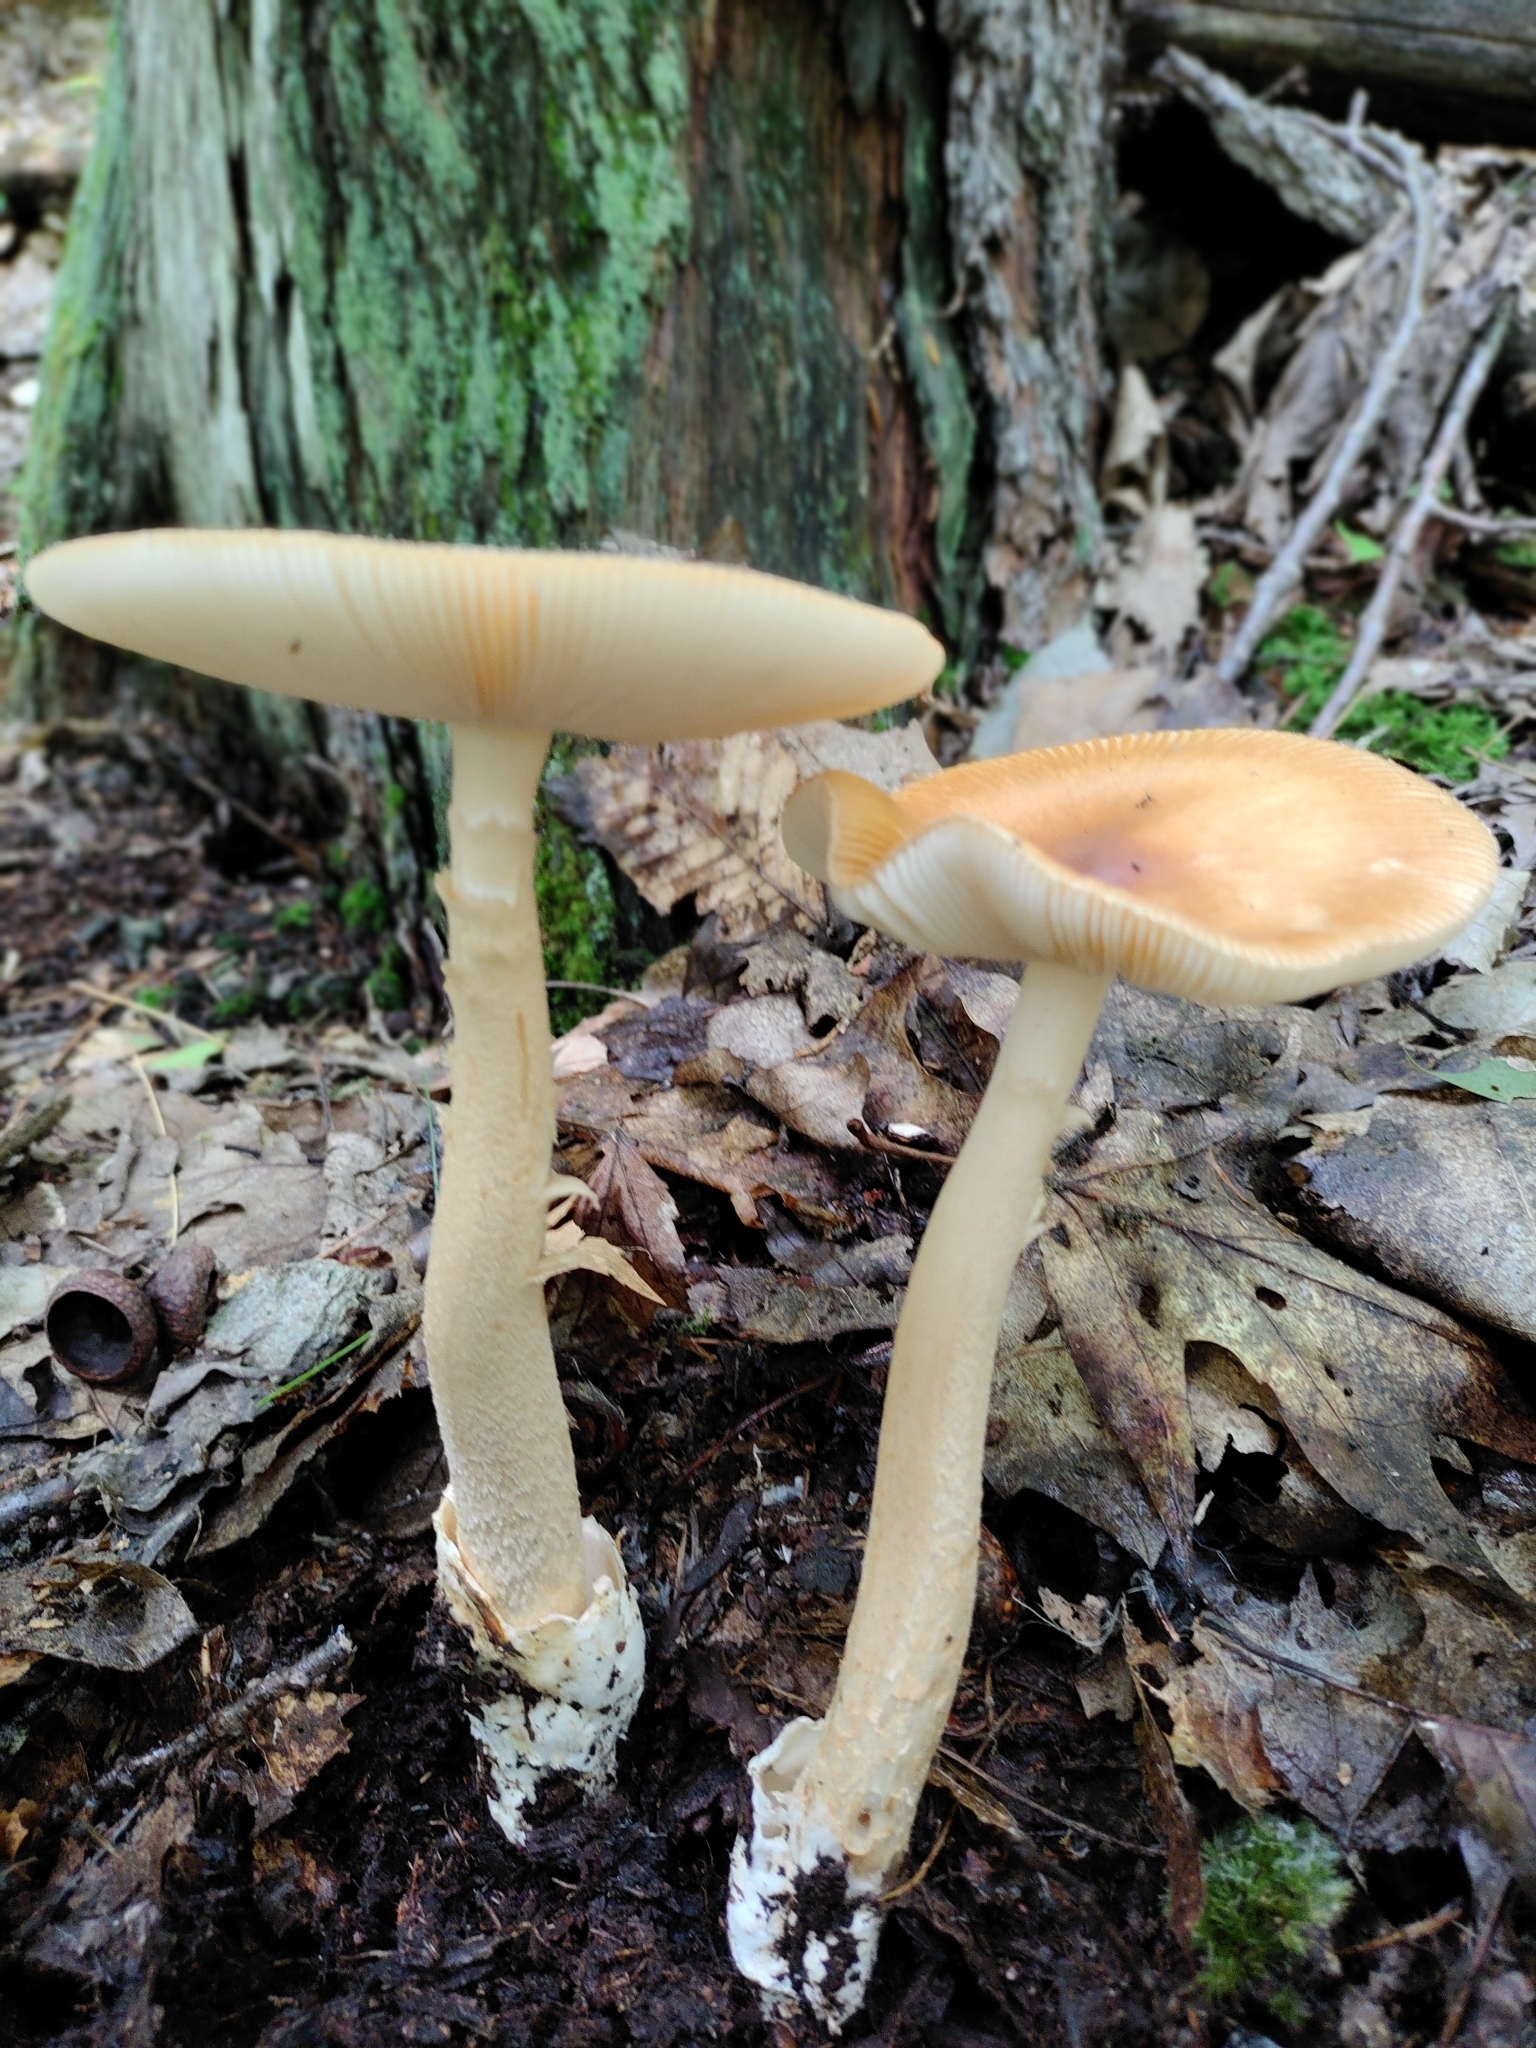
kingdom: Fungi
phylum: Basidiomycota
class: Agaricomycetes
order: Agaricales
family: Amanitaceae
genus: Amanita
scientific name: Amanita fulva
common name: Tawny grisette
